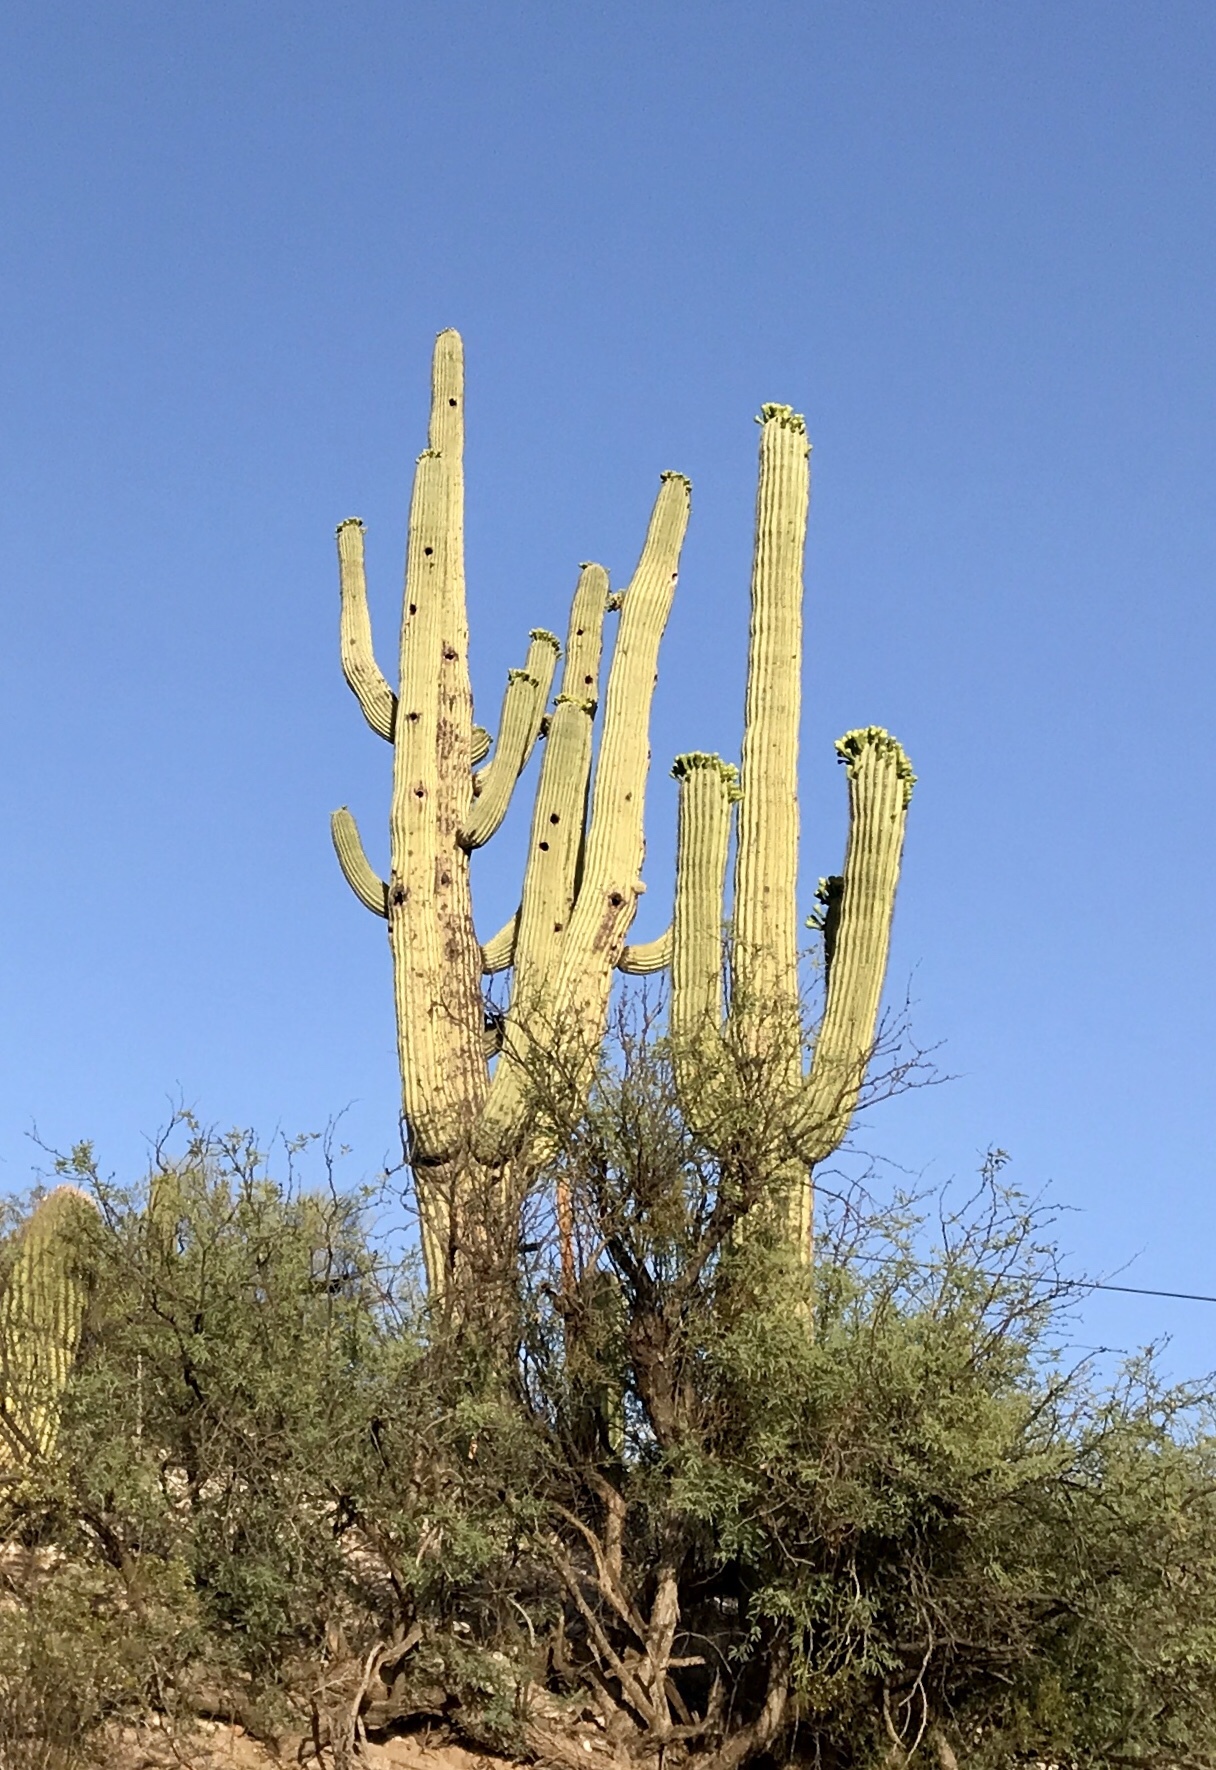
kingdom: Plantae
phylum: Tracheophyta
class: Magnoliopsida
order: Caryophyllales
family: Cactaceae
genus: Carnegiea
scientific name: Carnegiea gigantea
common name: Saguaro
